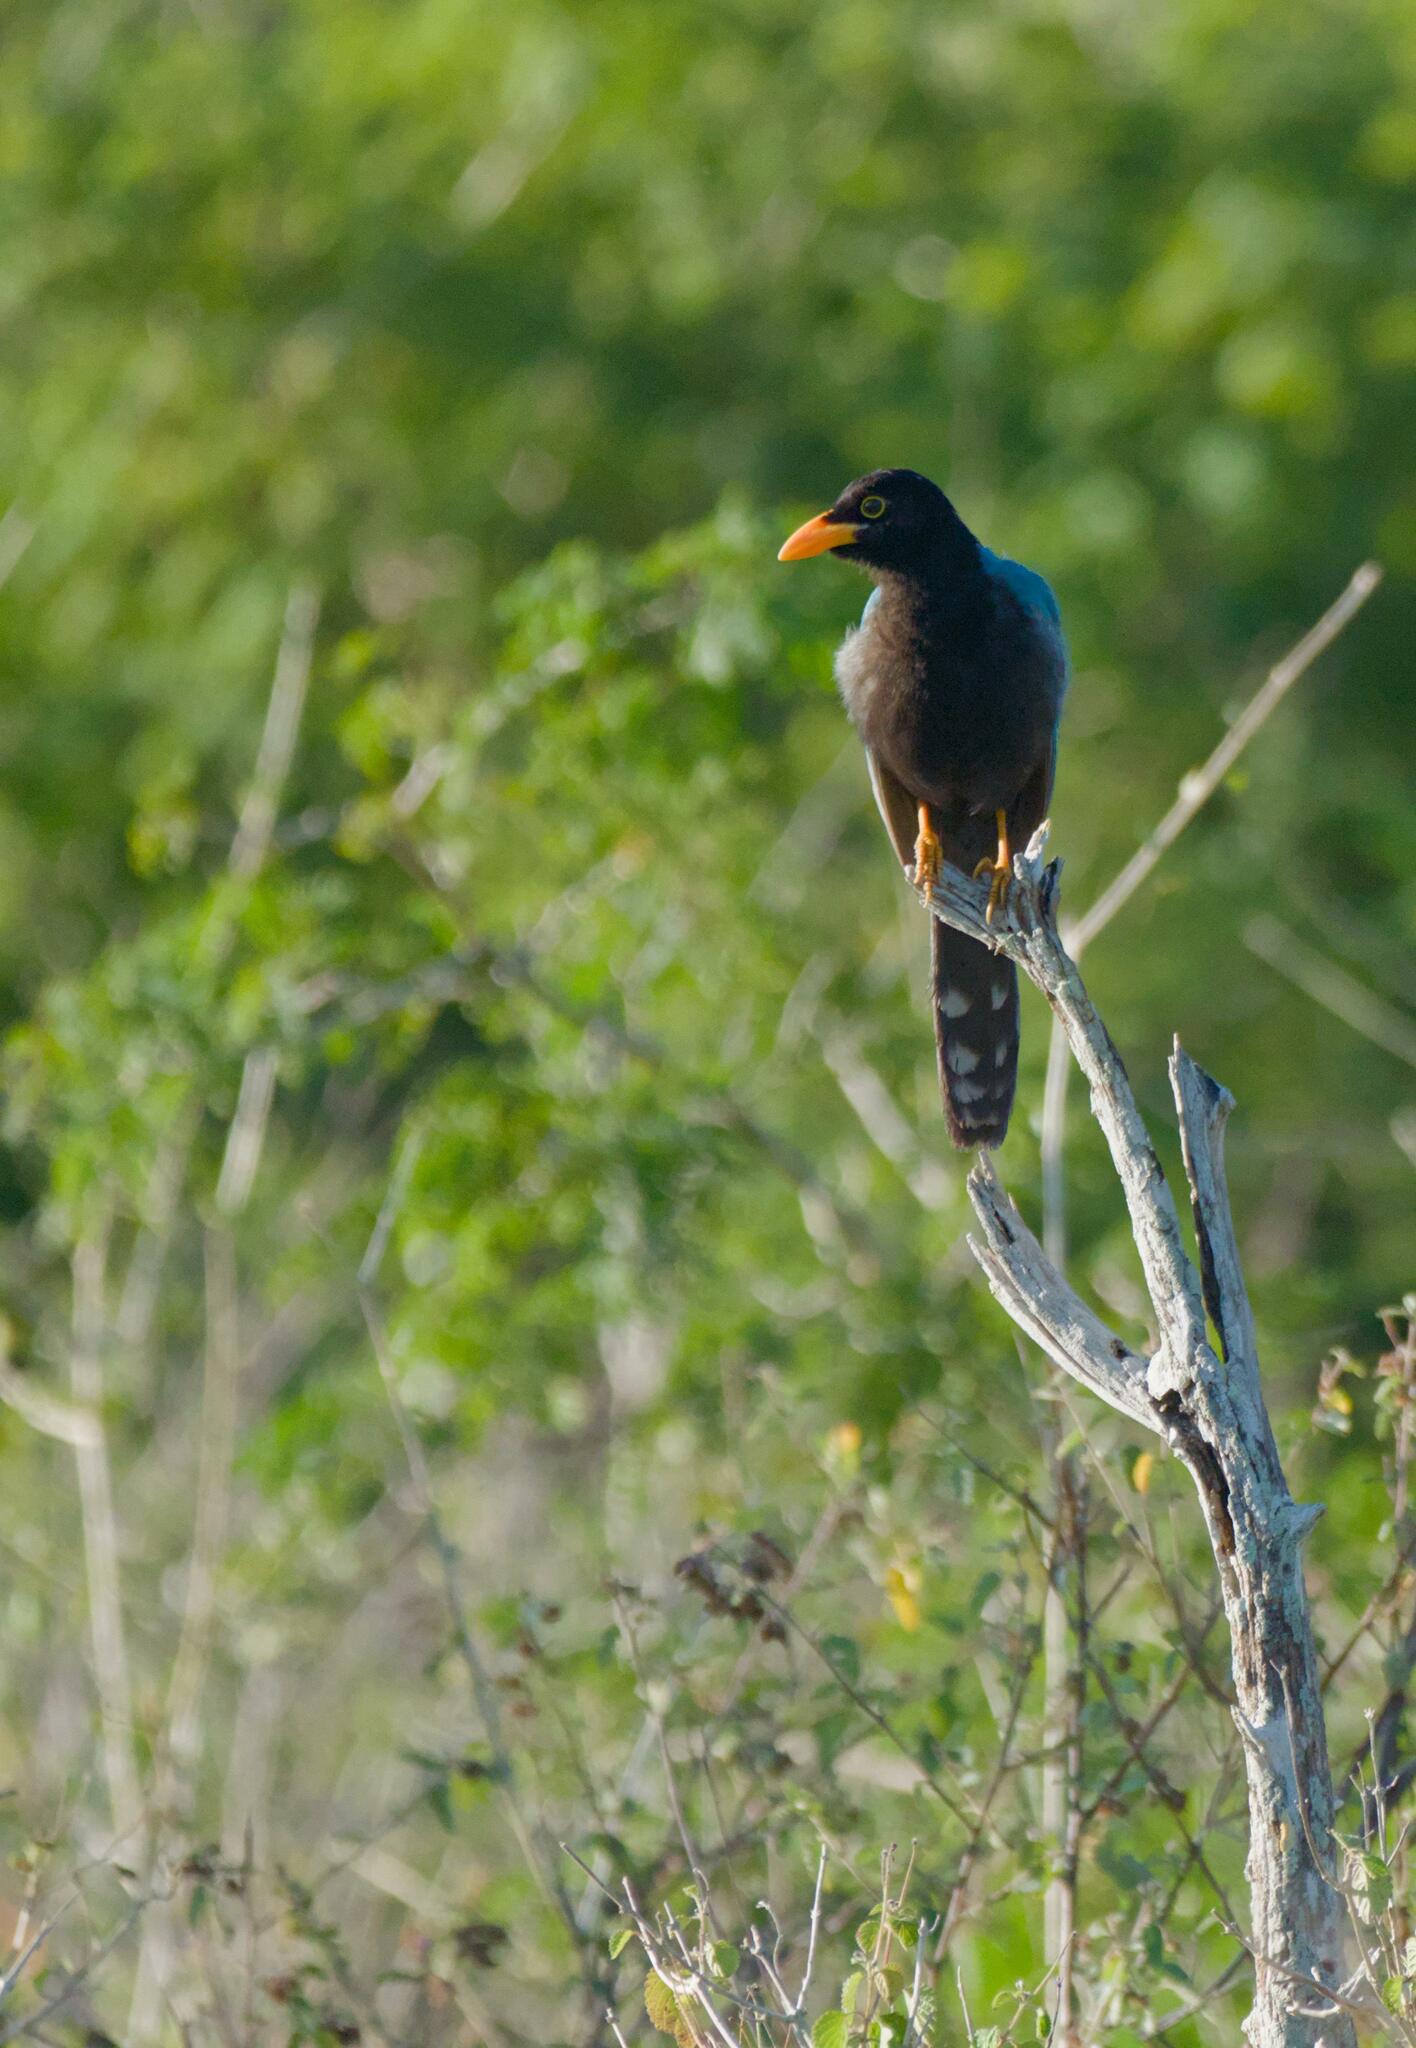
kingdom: Animalia
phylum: Chordata
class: Aves
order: Passeriformes
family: Corvidae
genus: Cyanocorax
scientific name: Cyanocorax yucatanicus
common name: Yucatan jay
